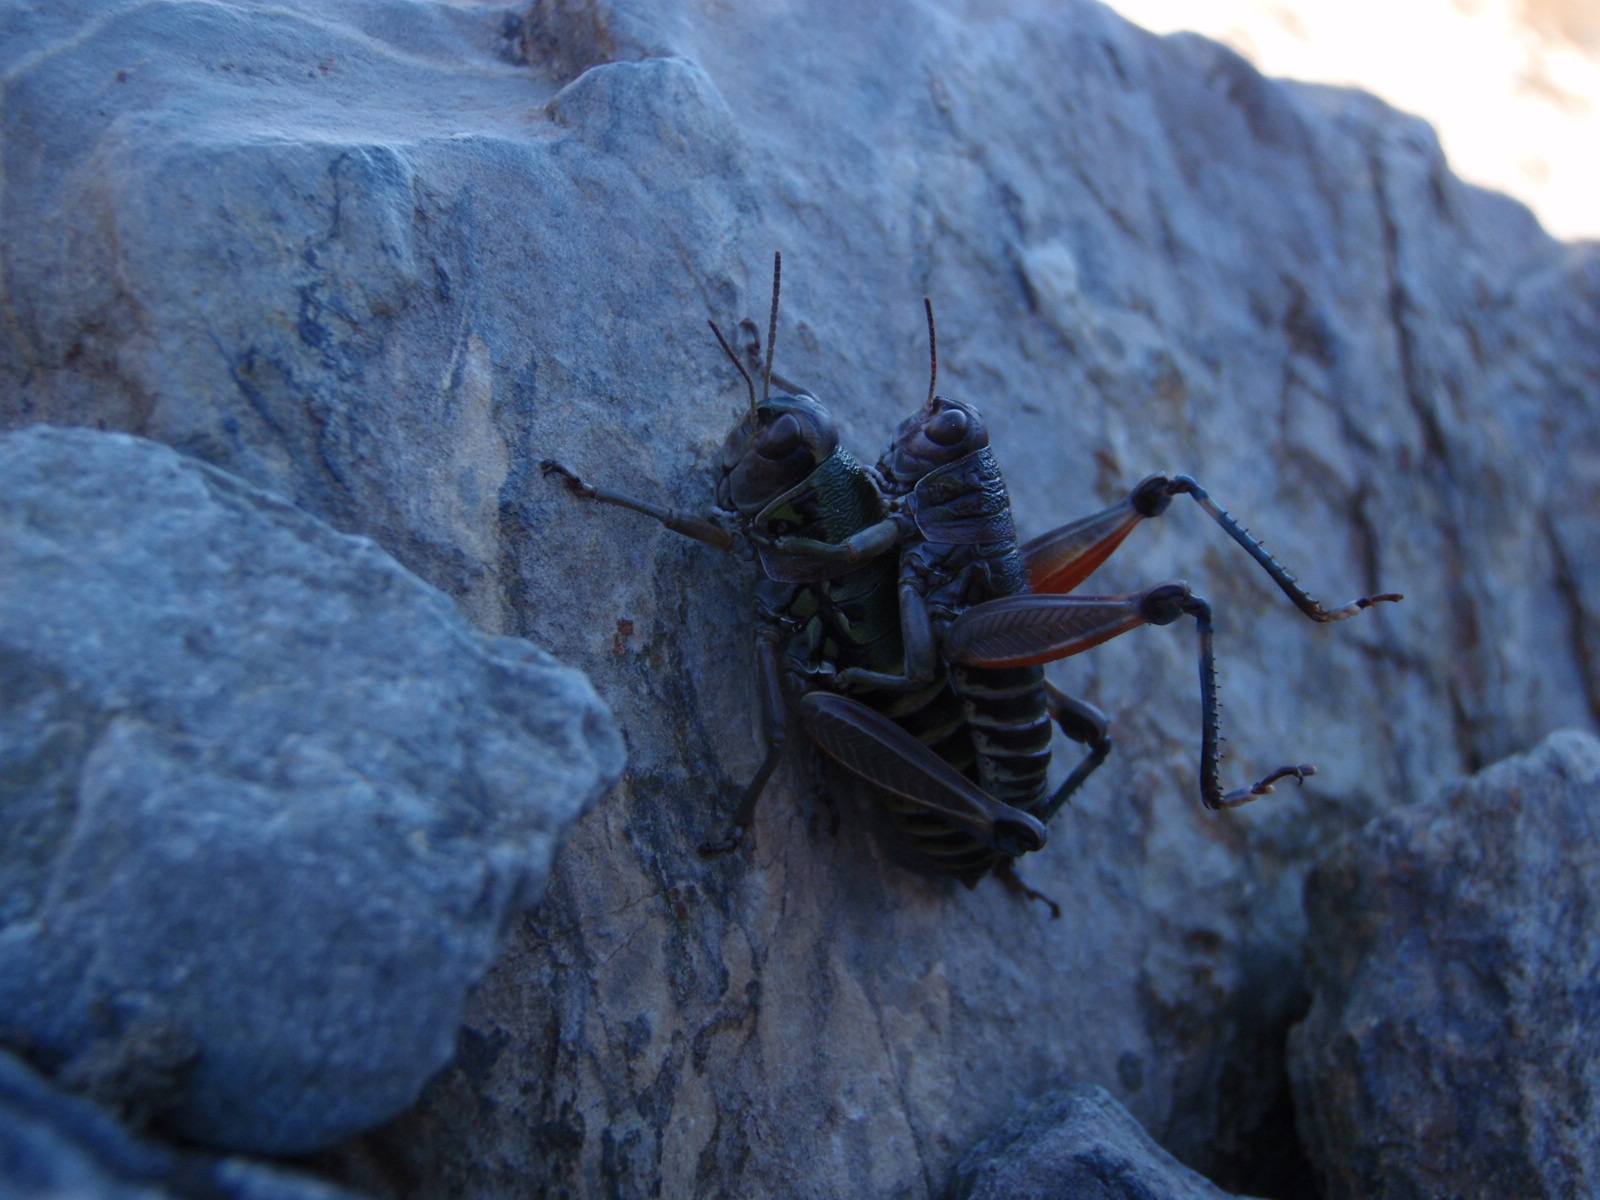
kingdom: Animalia
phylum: Arthropoda
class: Insecta
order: Orthoptera
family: Acrididae
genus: Cophopodisma
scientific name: Cophopodisma pyrenaea
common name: Pyrenean mountain grasshopper
